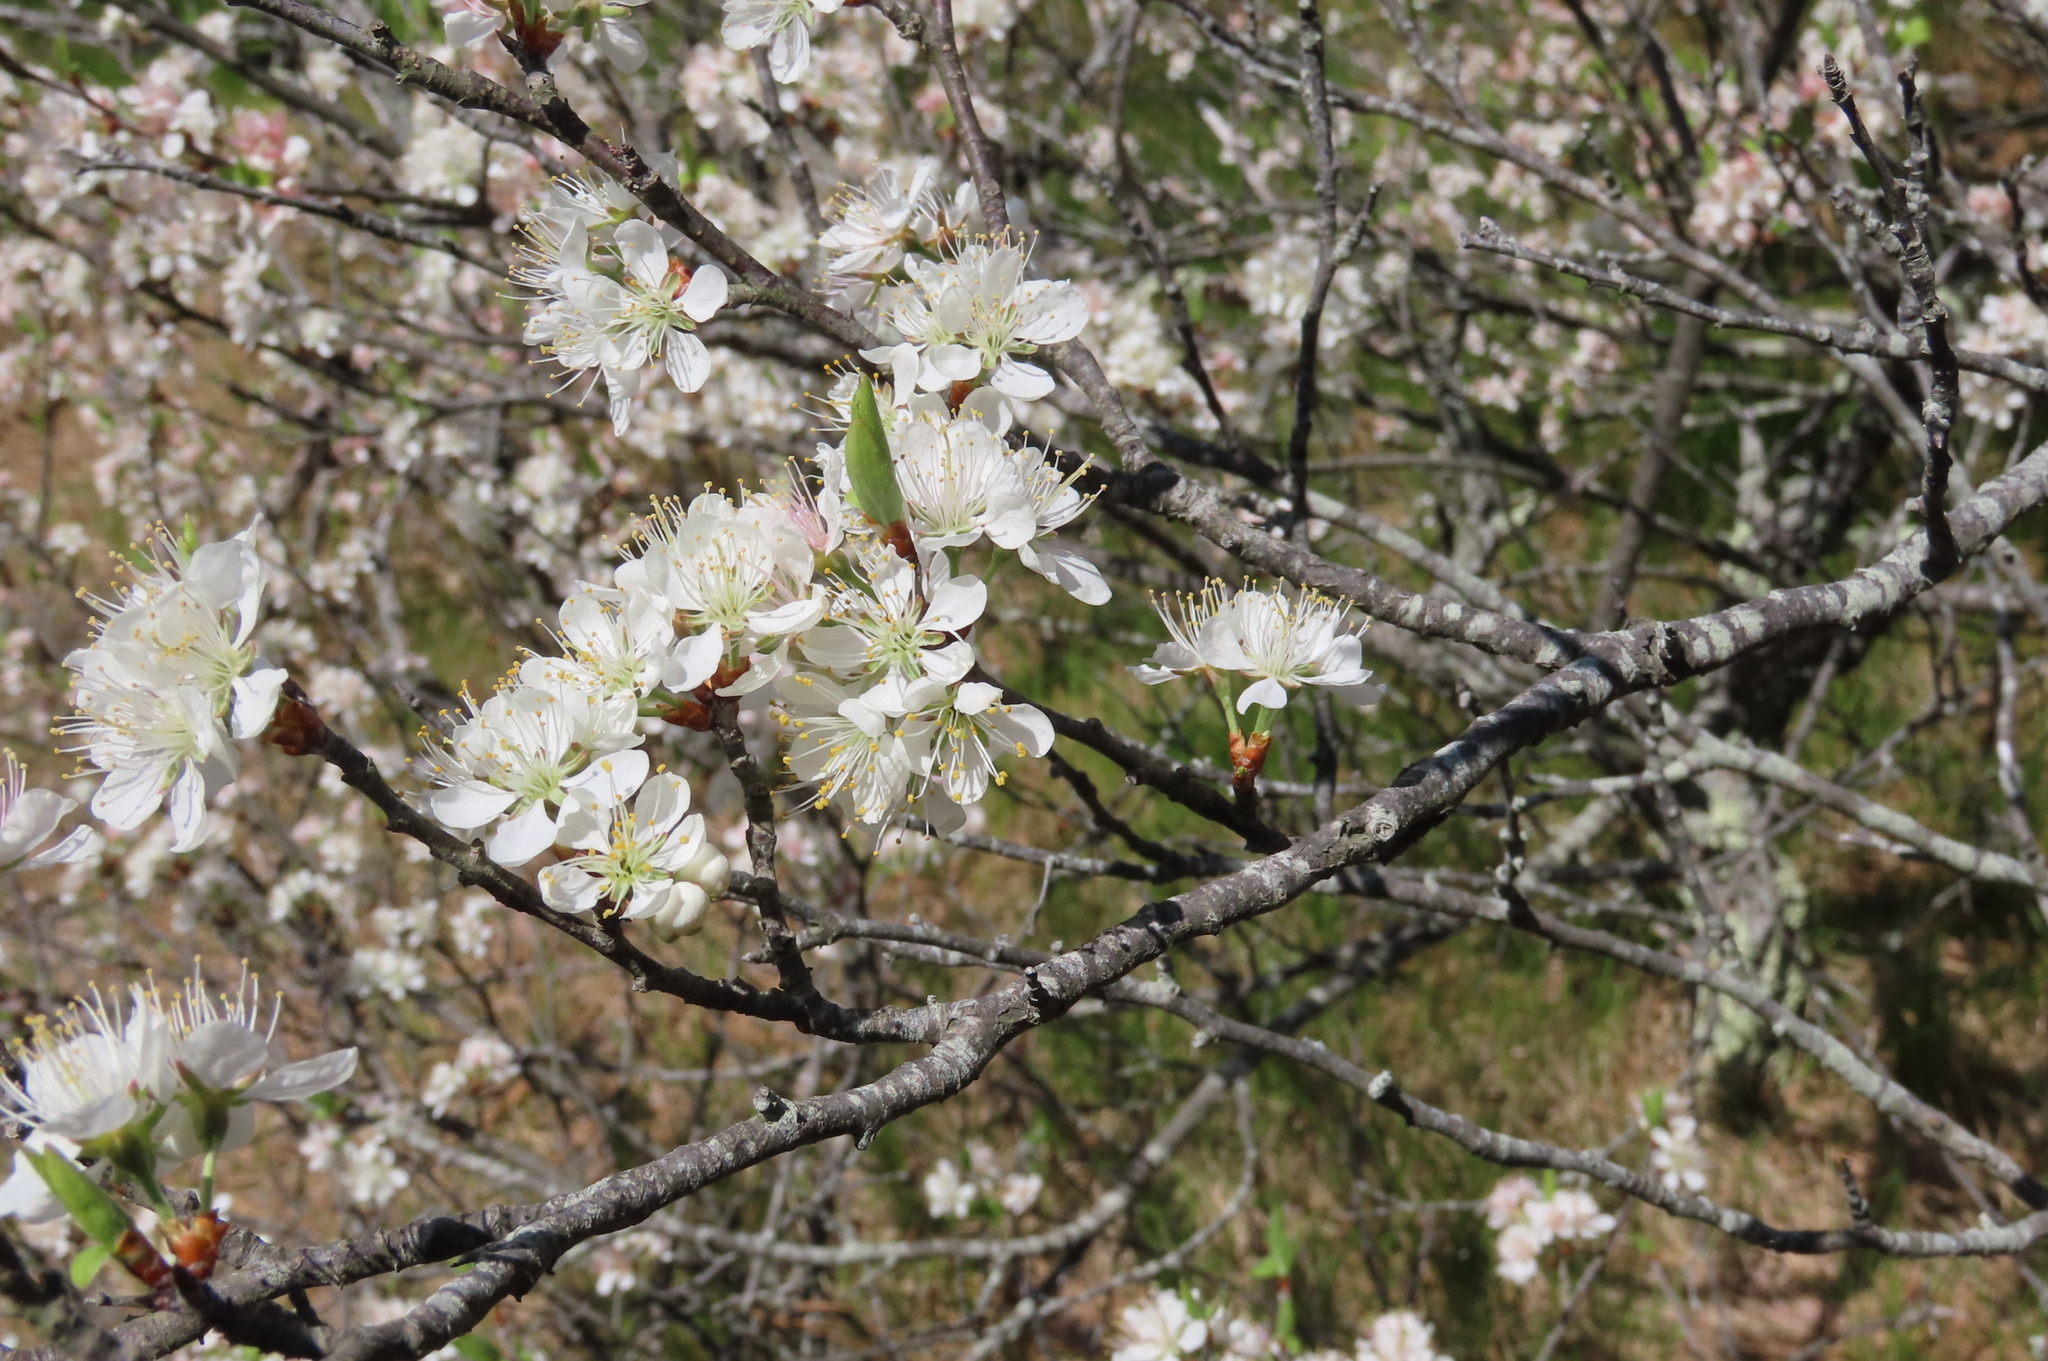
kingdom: Plantae
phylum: Tracheophyta
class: Magnoliopsida
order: Rosales
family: Rosaceae
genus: Prunus
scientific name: Prunus maritima
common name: Beach plum
